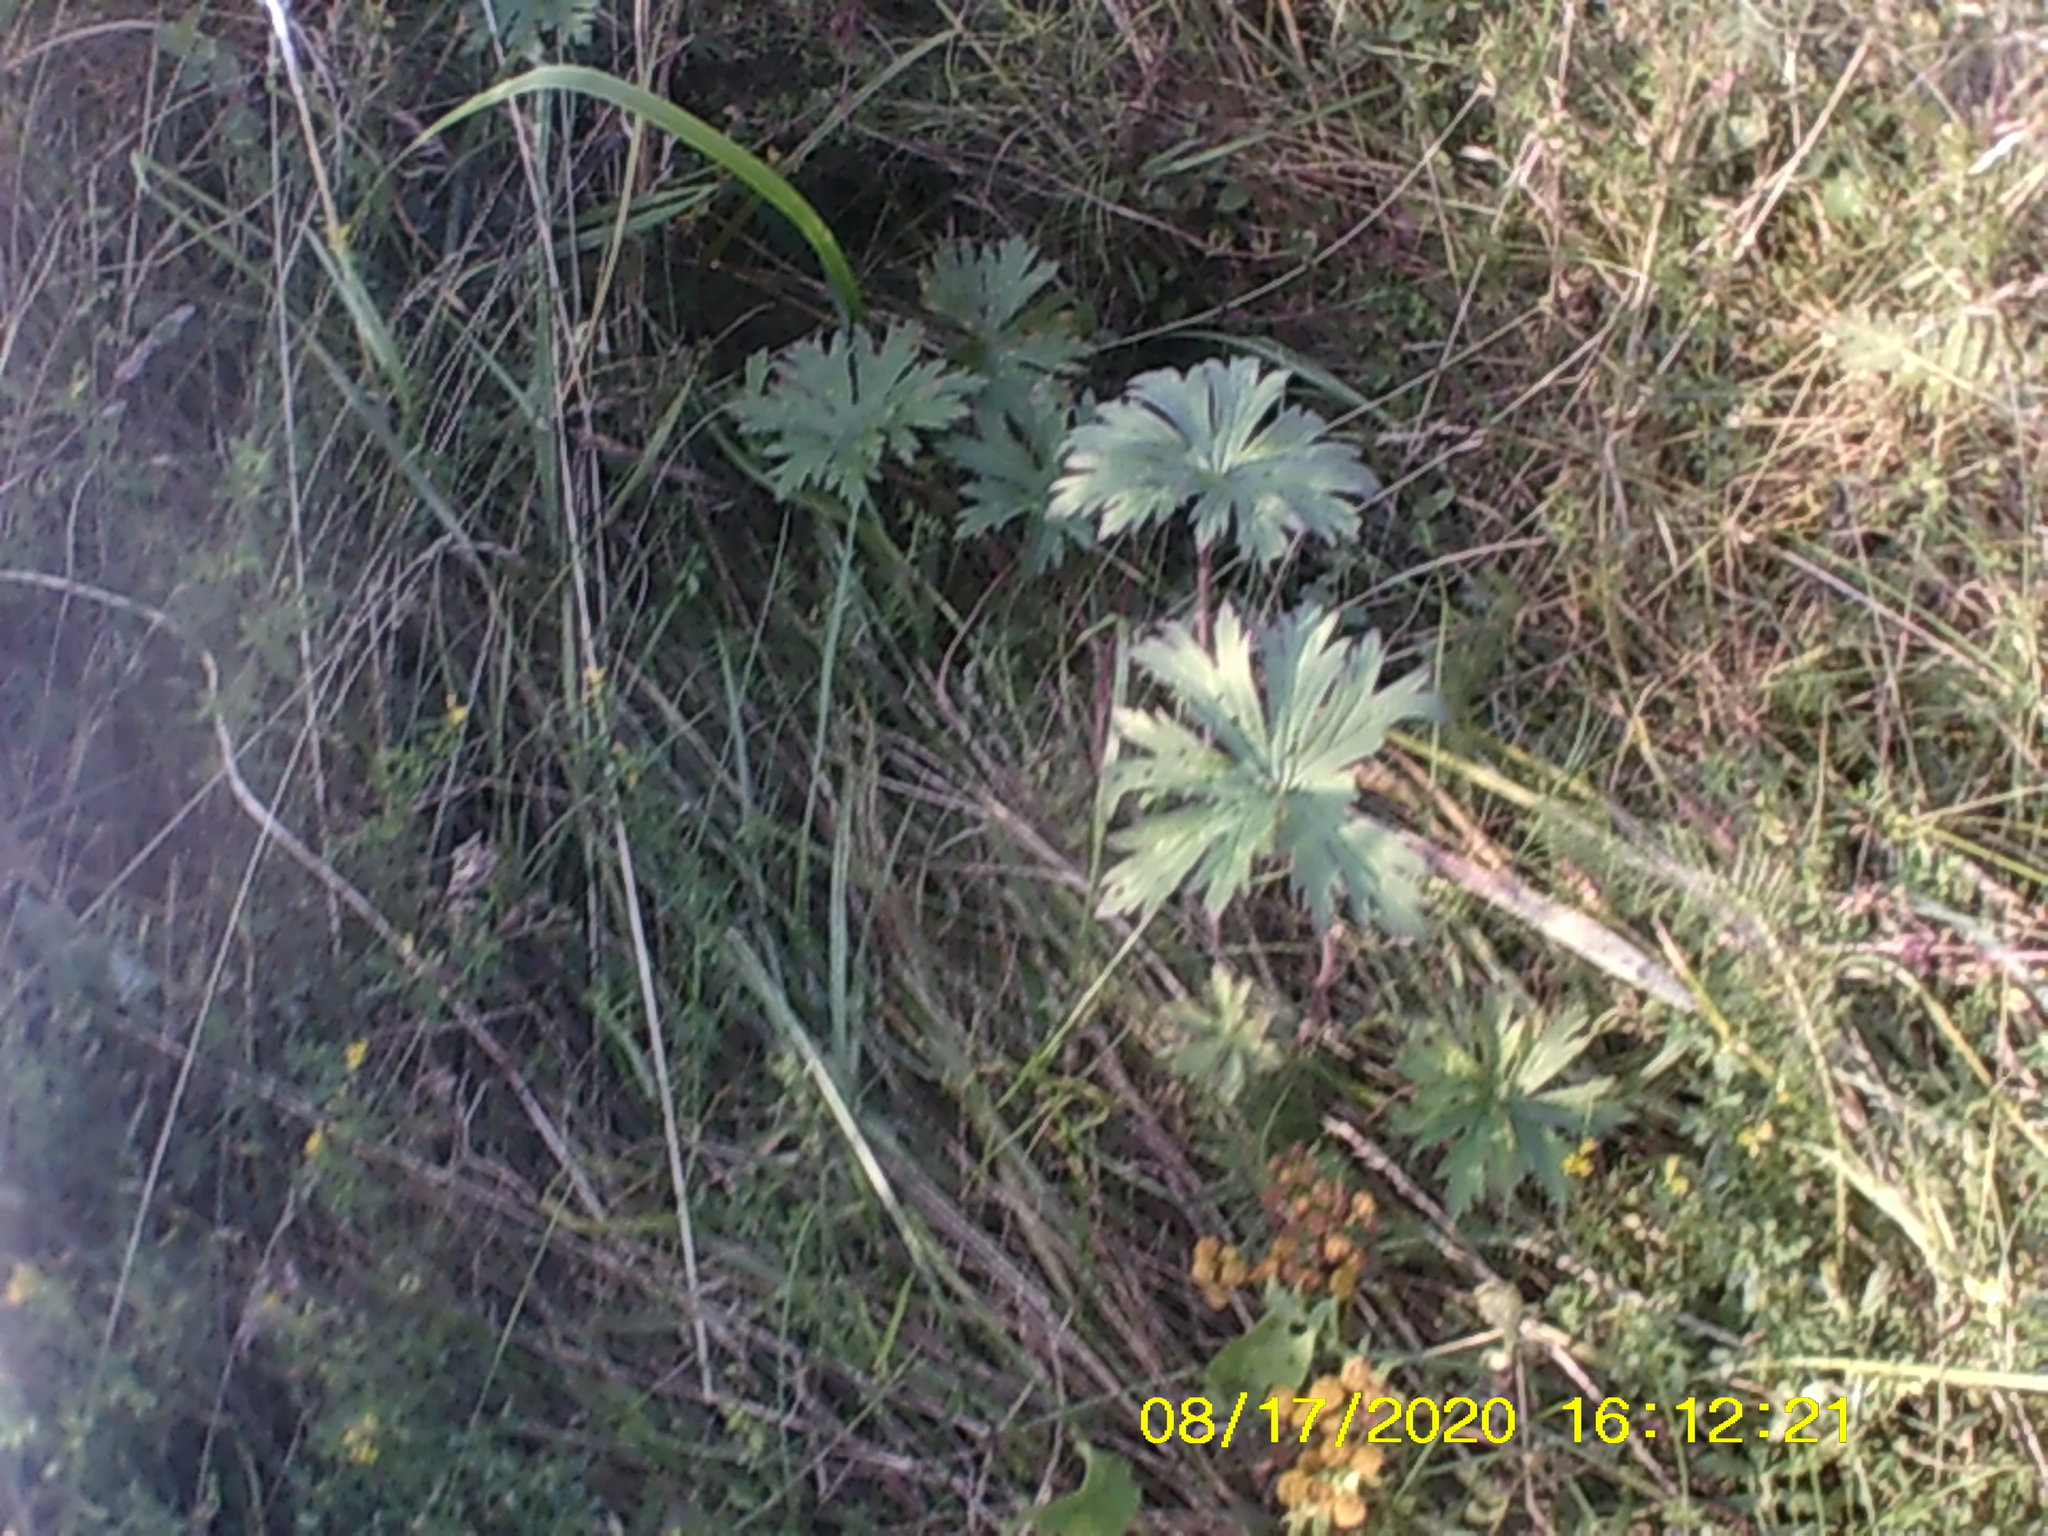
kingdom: Plantae
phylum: Tracheophyta
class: Magnoliopsida
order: Geraniales
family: Geraniaceae
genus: Geranium
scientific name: Geranium pratense
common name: Meadow crane's-bill
